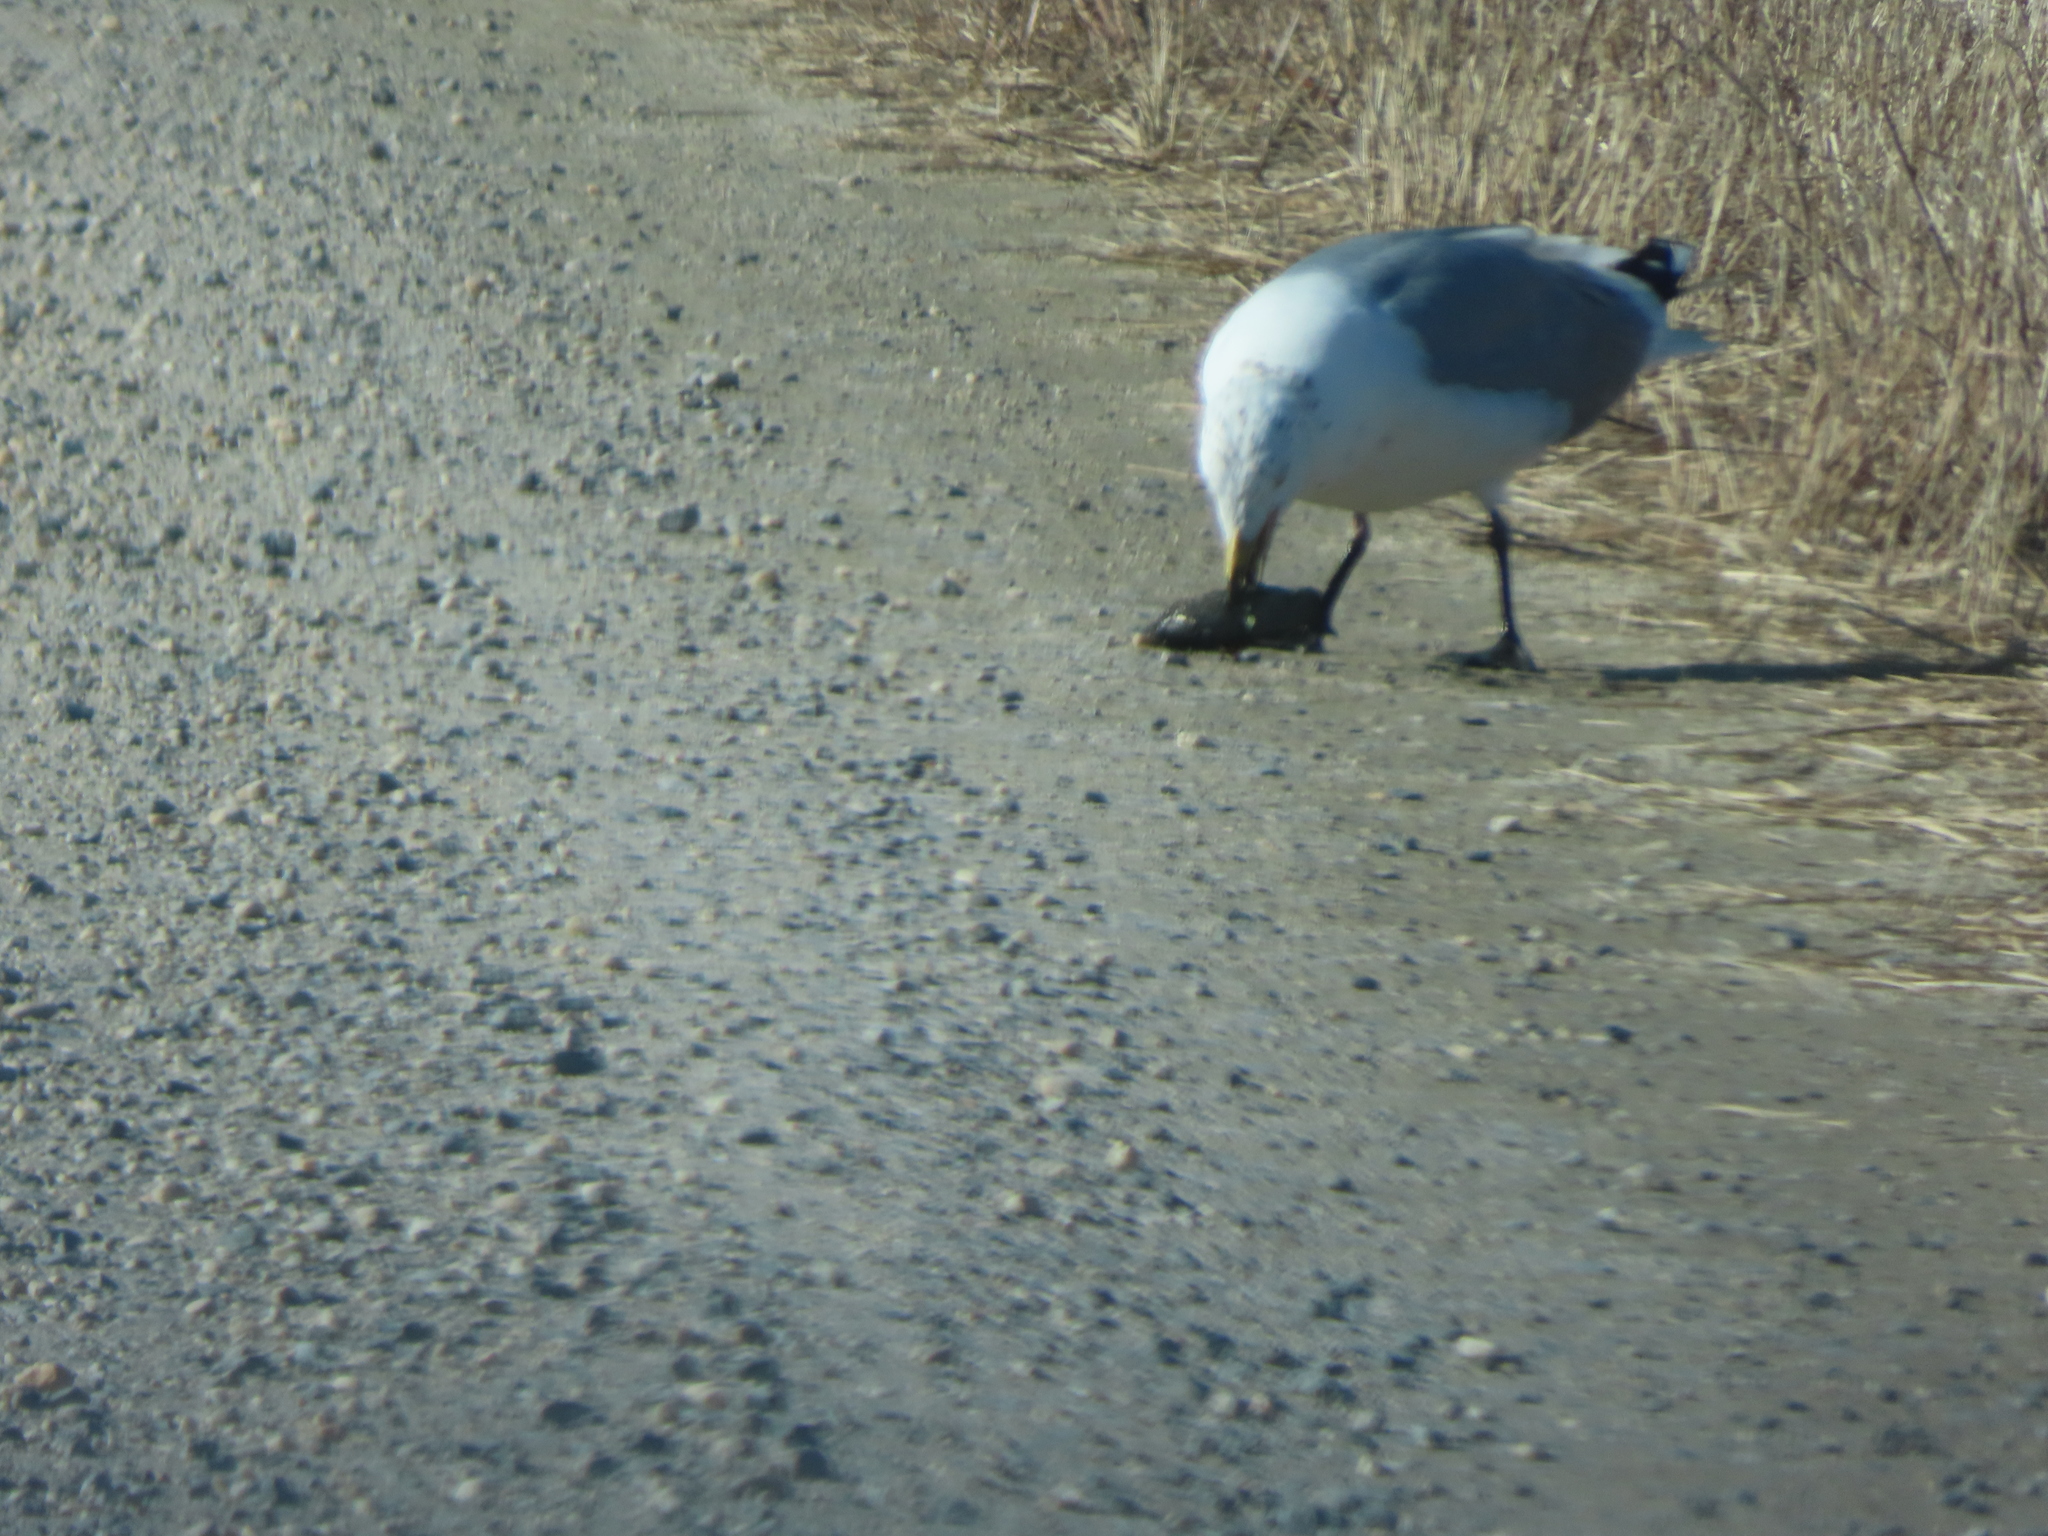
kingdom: Animalia
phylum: Chordata
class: Aves
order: Charadriiformes
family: Laridae
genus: Larus
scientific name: Larus argentatus
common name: Herring gull
